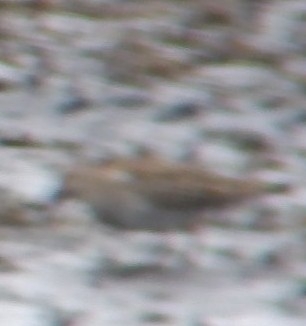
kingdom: Animalia
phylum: Chordata
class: Aves
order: Charadriiformes
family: Scolopacidae
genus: Calidris
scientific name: Calidris minutilla
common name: Least sandpiper
